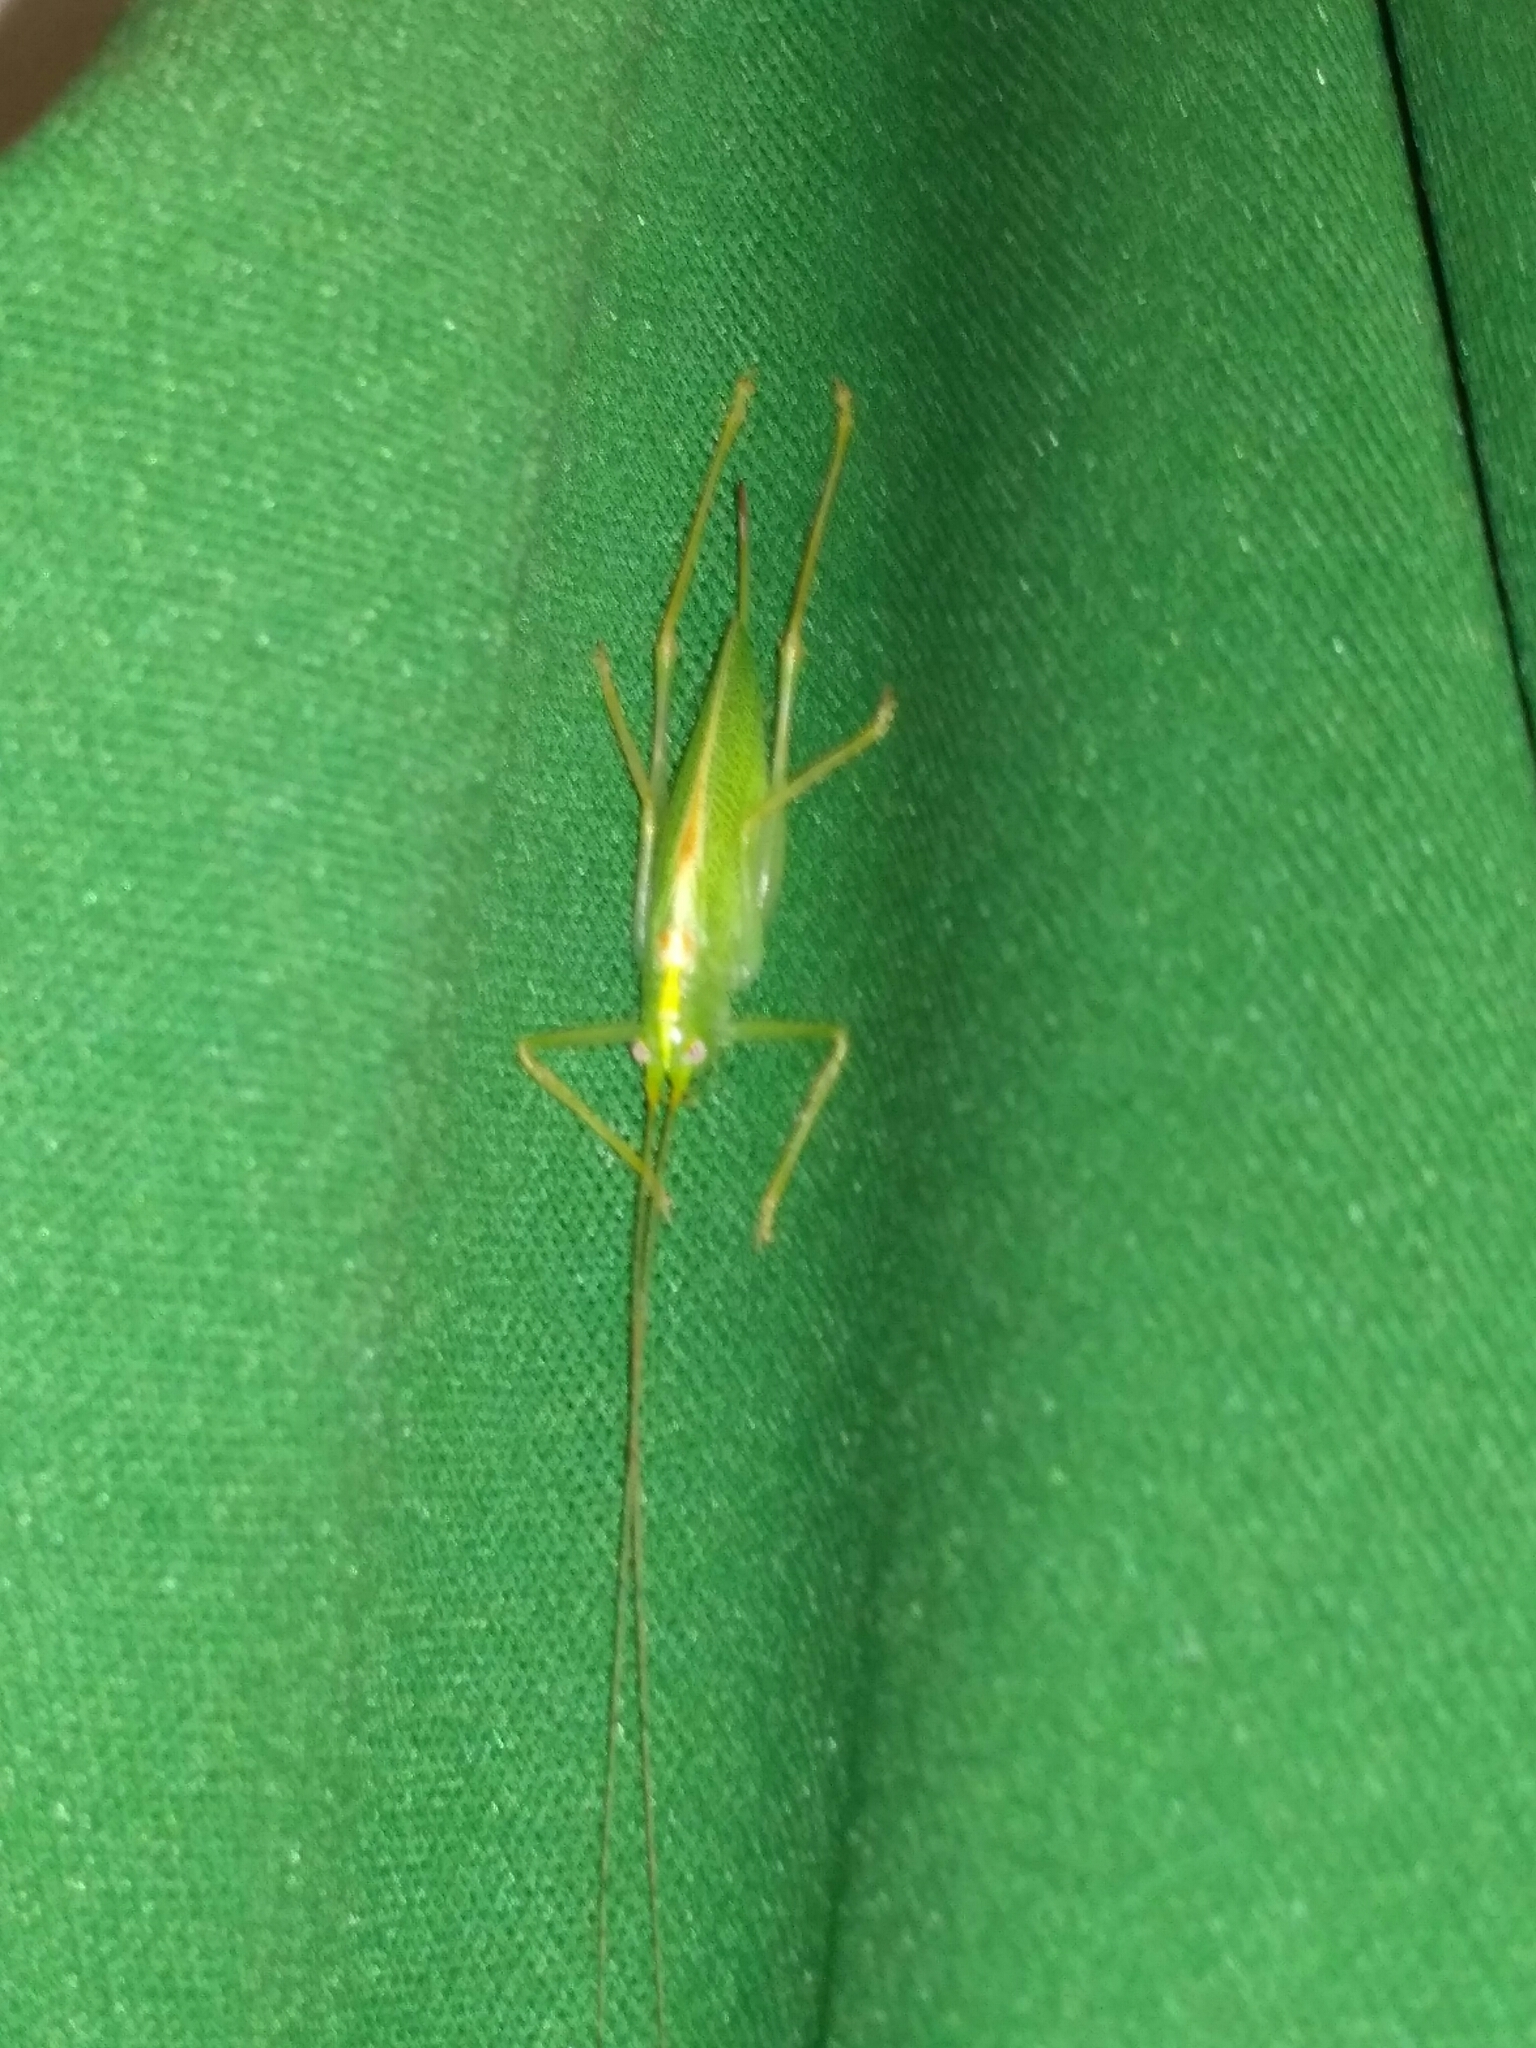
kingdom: Animalia
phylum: Arthropoda
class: Insecta
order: Orthoptera
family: Tettigoniidae
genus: Meconema
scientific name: Meconema thalassinum
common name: Oak bush-cricket
